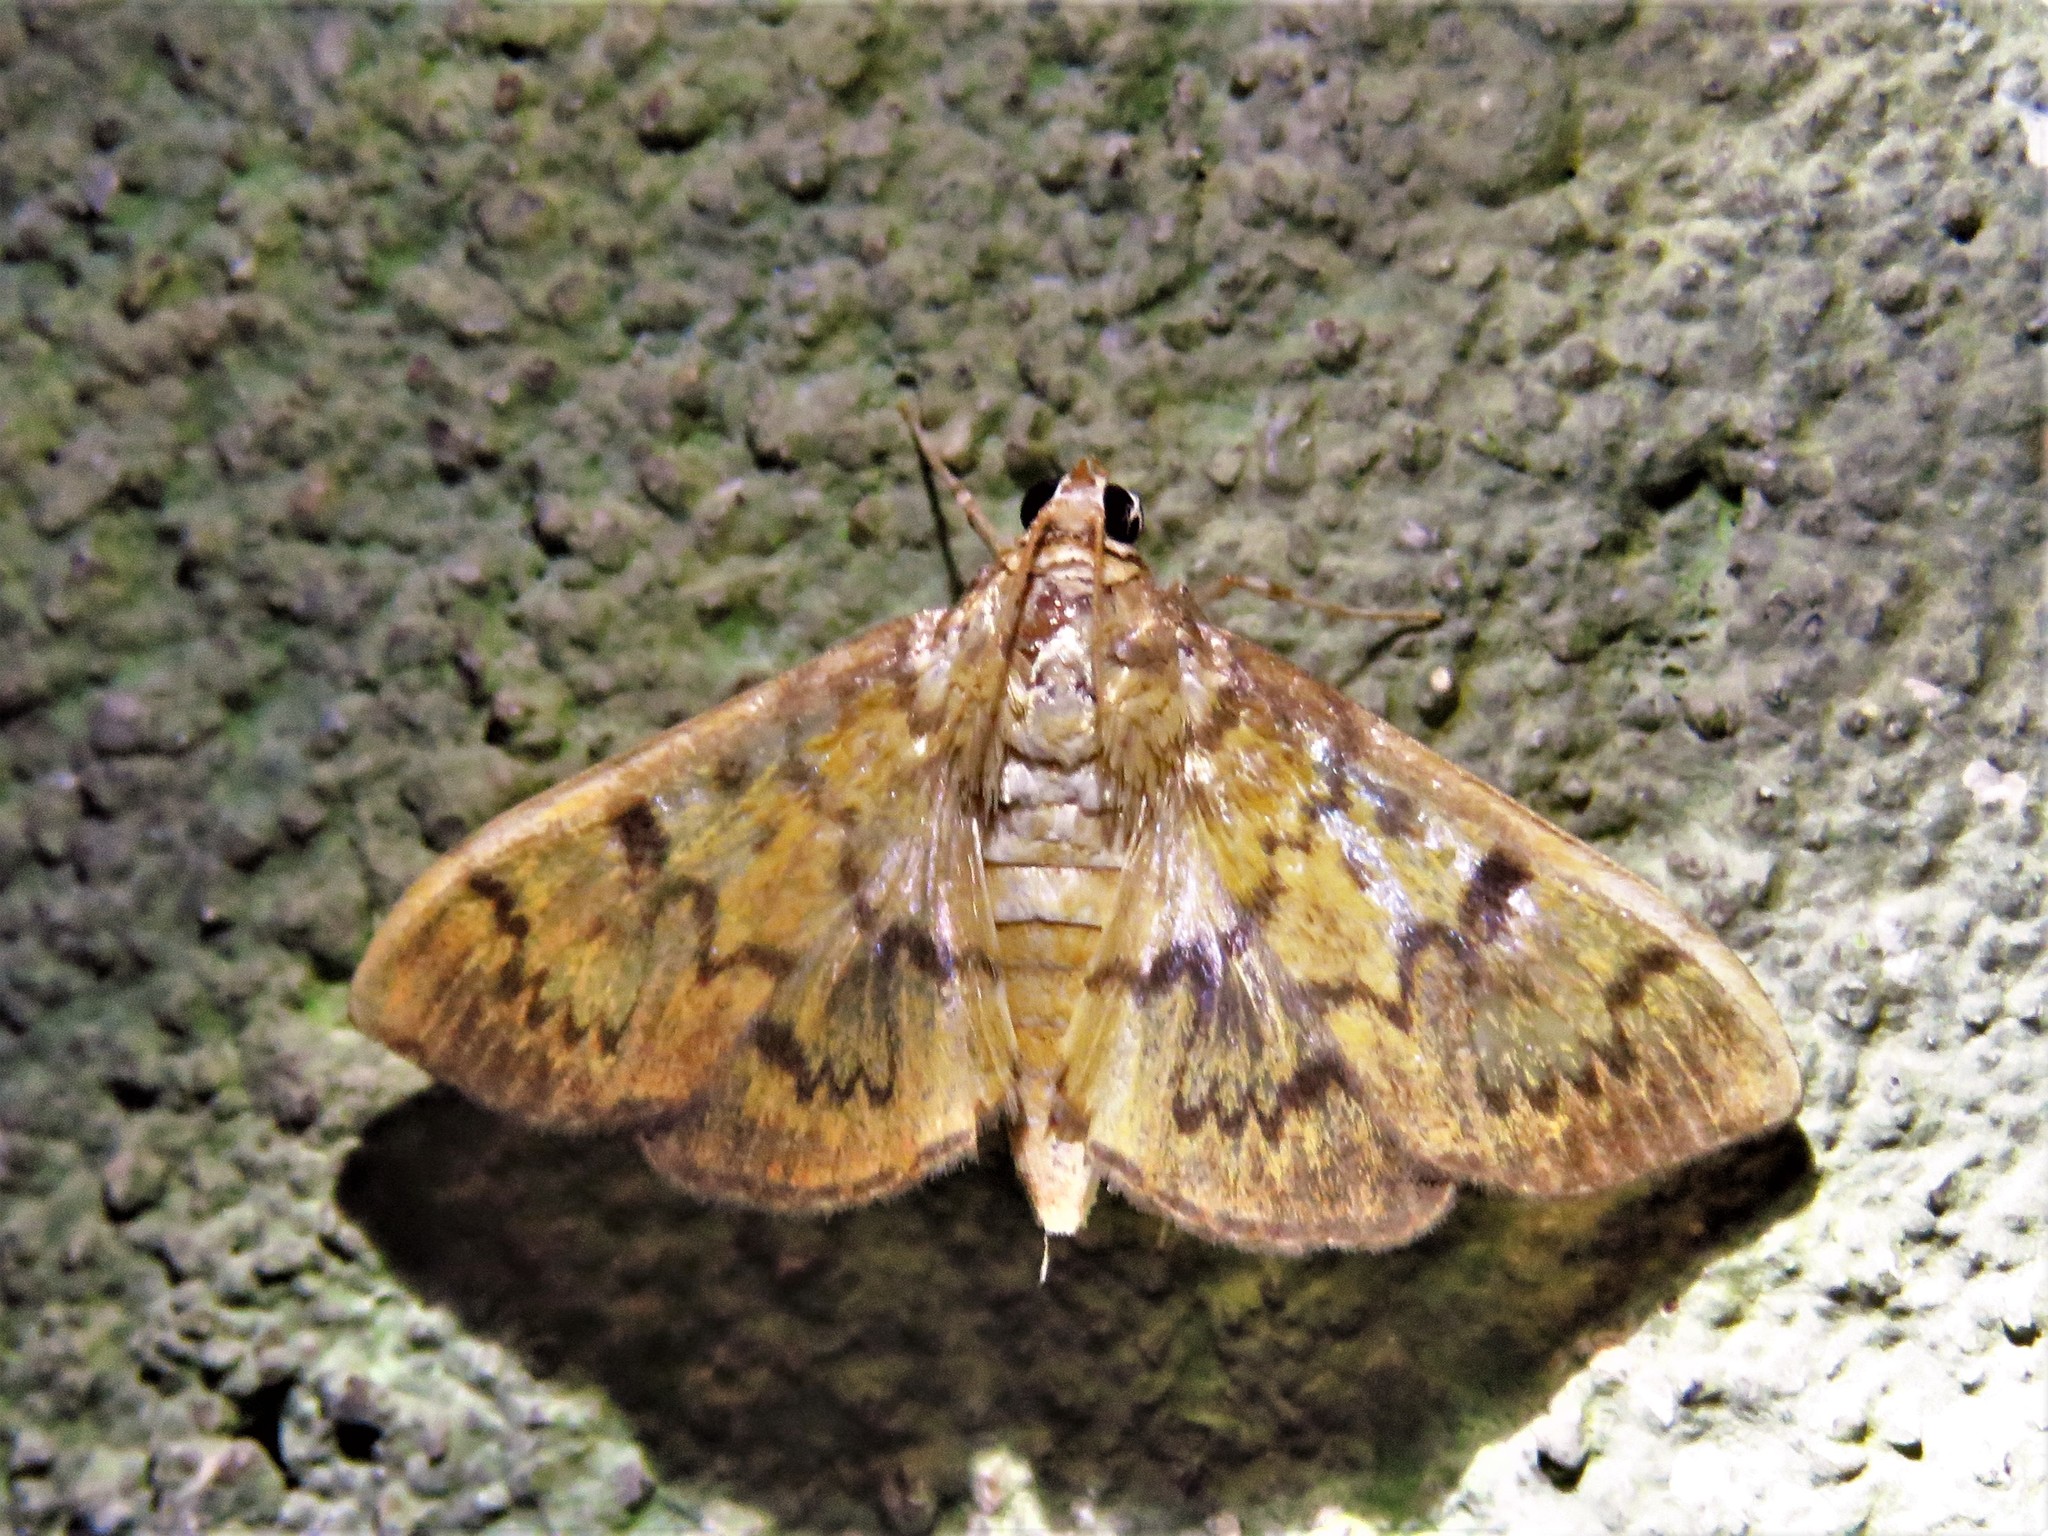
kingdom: Animalia
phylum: Arthropoda
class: Insecta
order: Lepidoptera
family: Crambidae
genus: Syllepte
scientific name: Syllepte obscuralis
